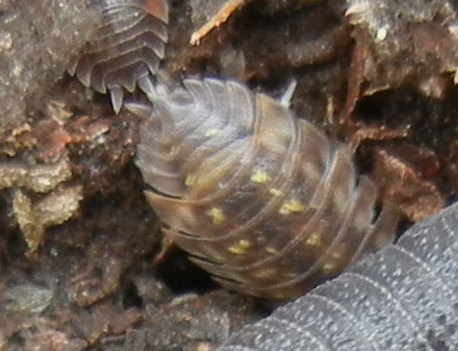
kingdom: Animalia
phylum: Arthropoda
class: Malacostraca
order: Isopoda
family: Oniscidae
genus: Oniscus
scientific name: Oniscus asellus
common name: Common shiny woodlouse
